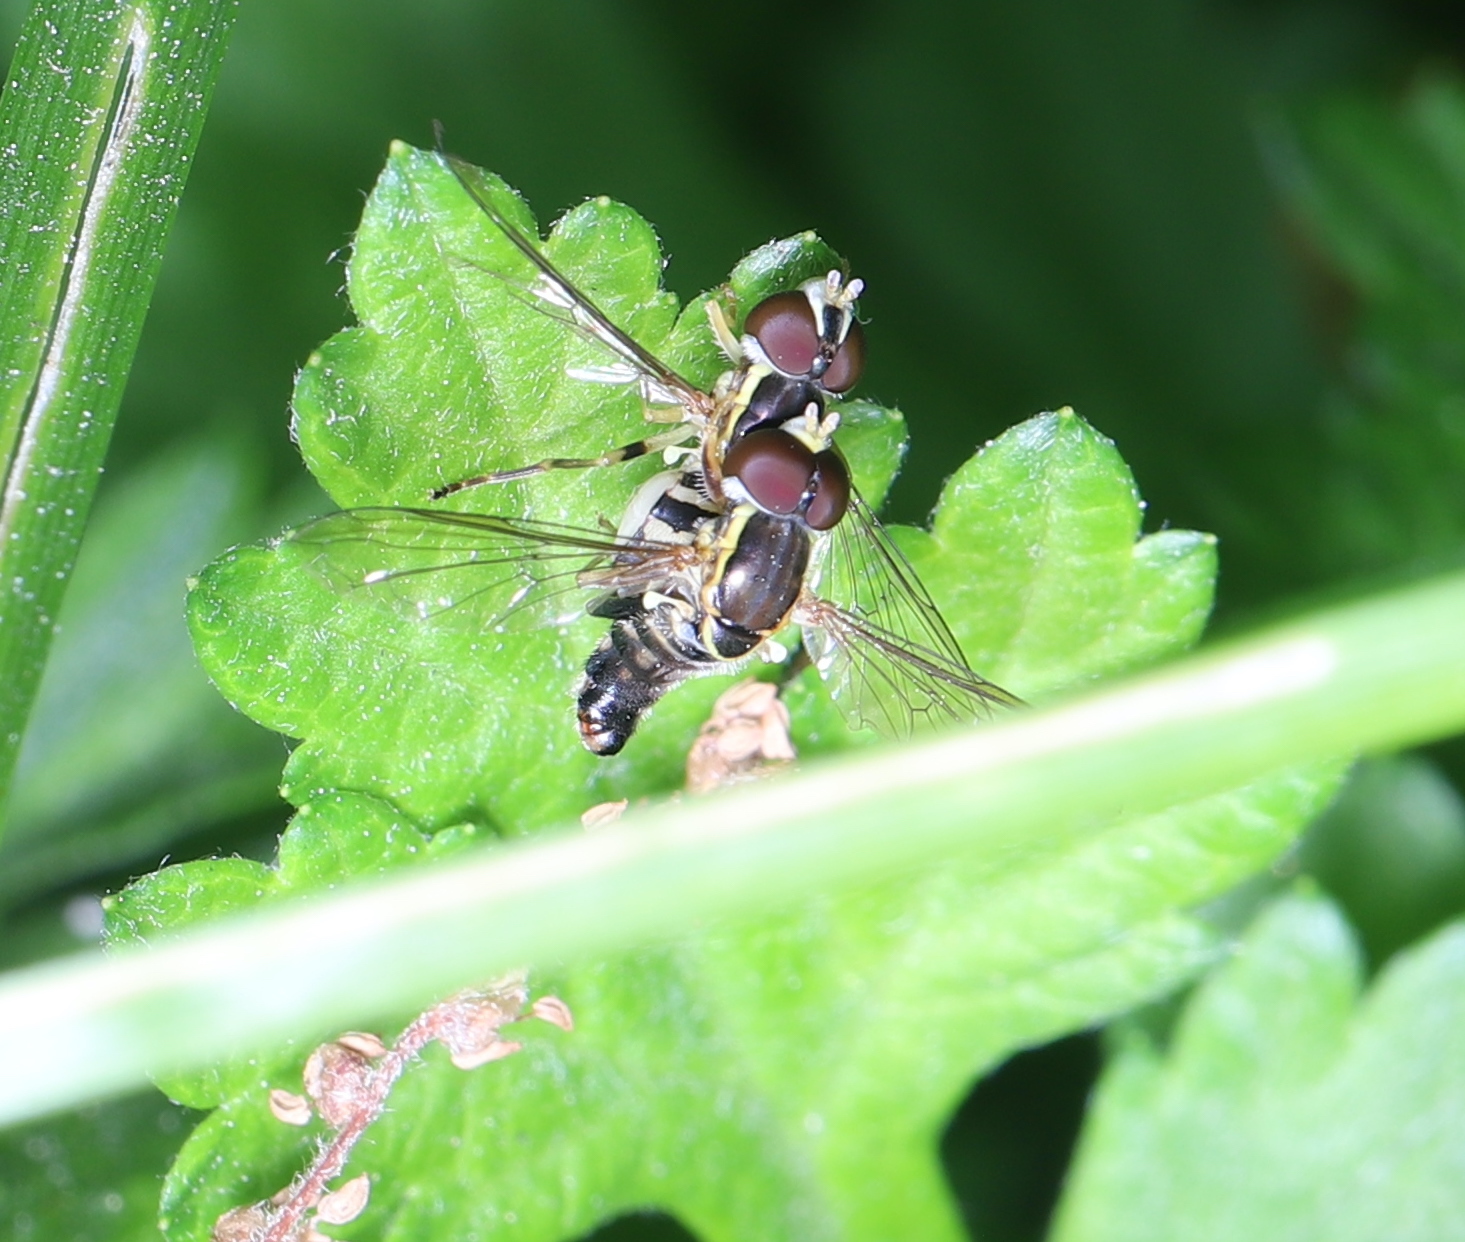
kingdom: Animalia
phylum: Arthropoda
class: Insecta
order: Diptera
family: Syrphidae
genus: Toxomerus
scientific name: Toxomerus geminatus
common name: Eastern calligrapher
